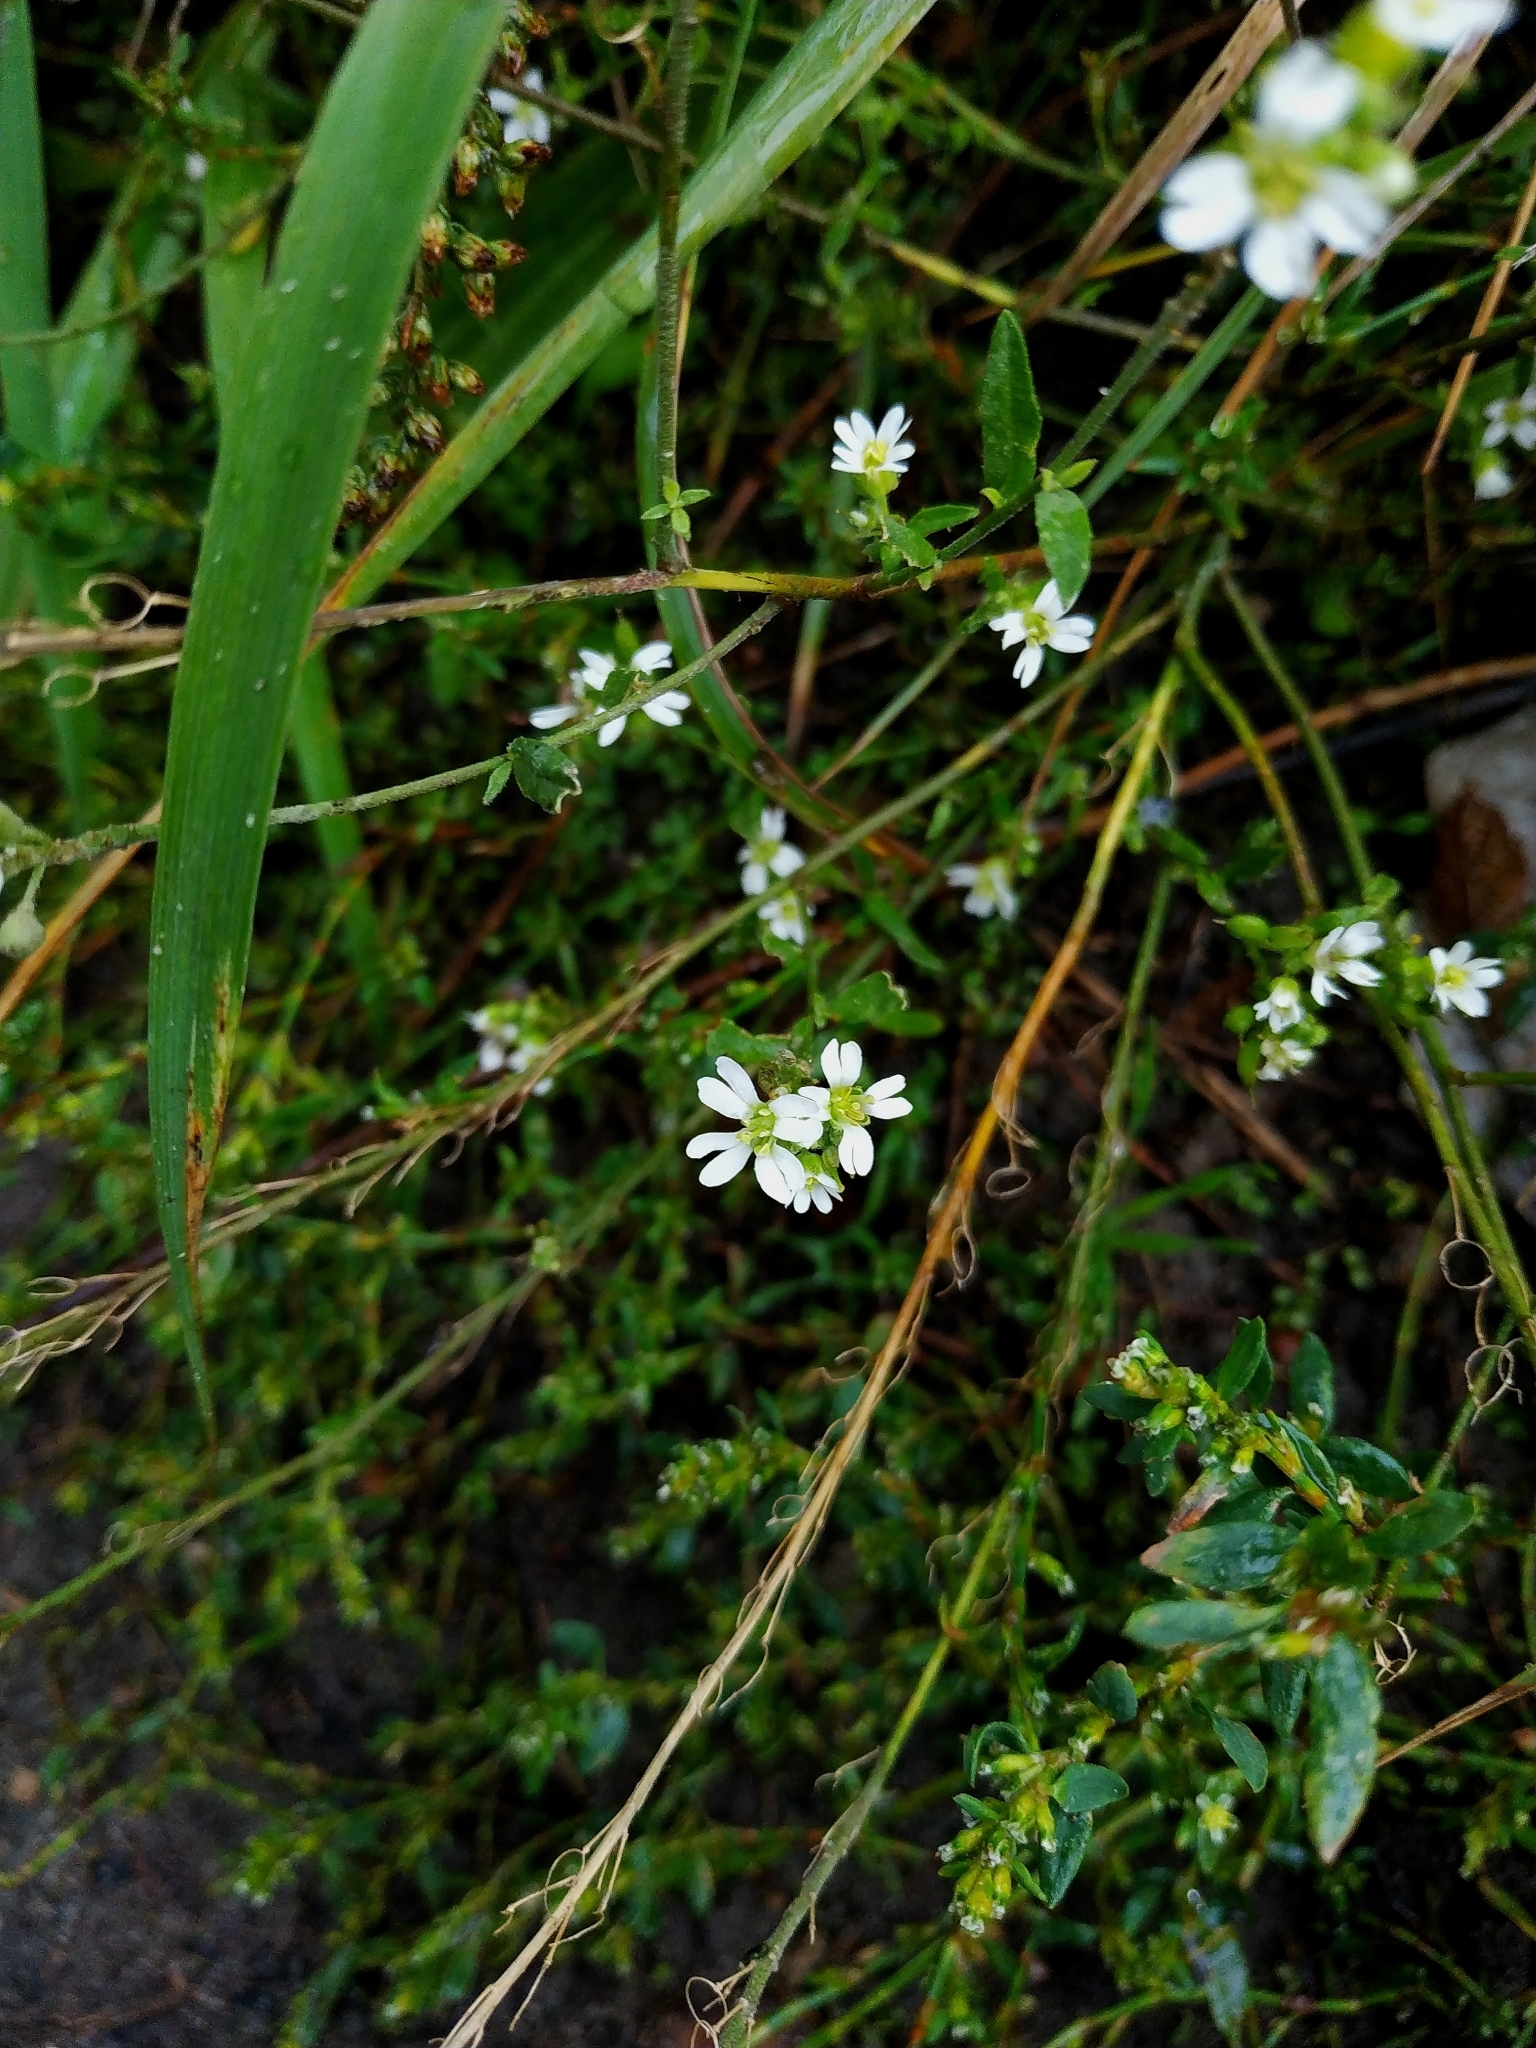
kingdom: Plantae
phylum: Tracheophyta
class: Magnoliopsida
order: Brassicales
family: Brassicaceae
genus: Berteroa
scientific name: Berteroa incana
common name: Hoary alison
